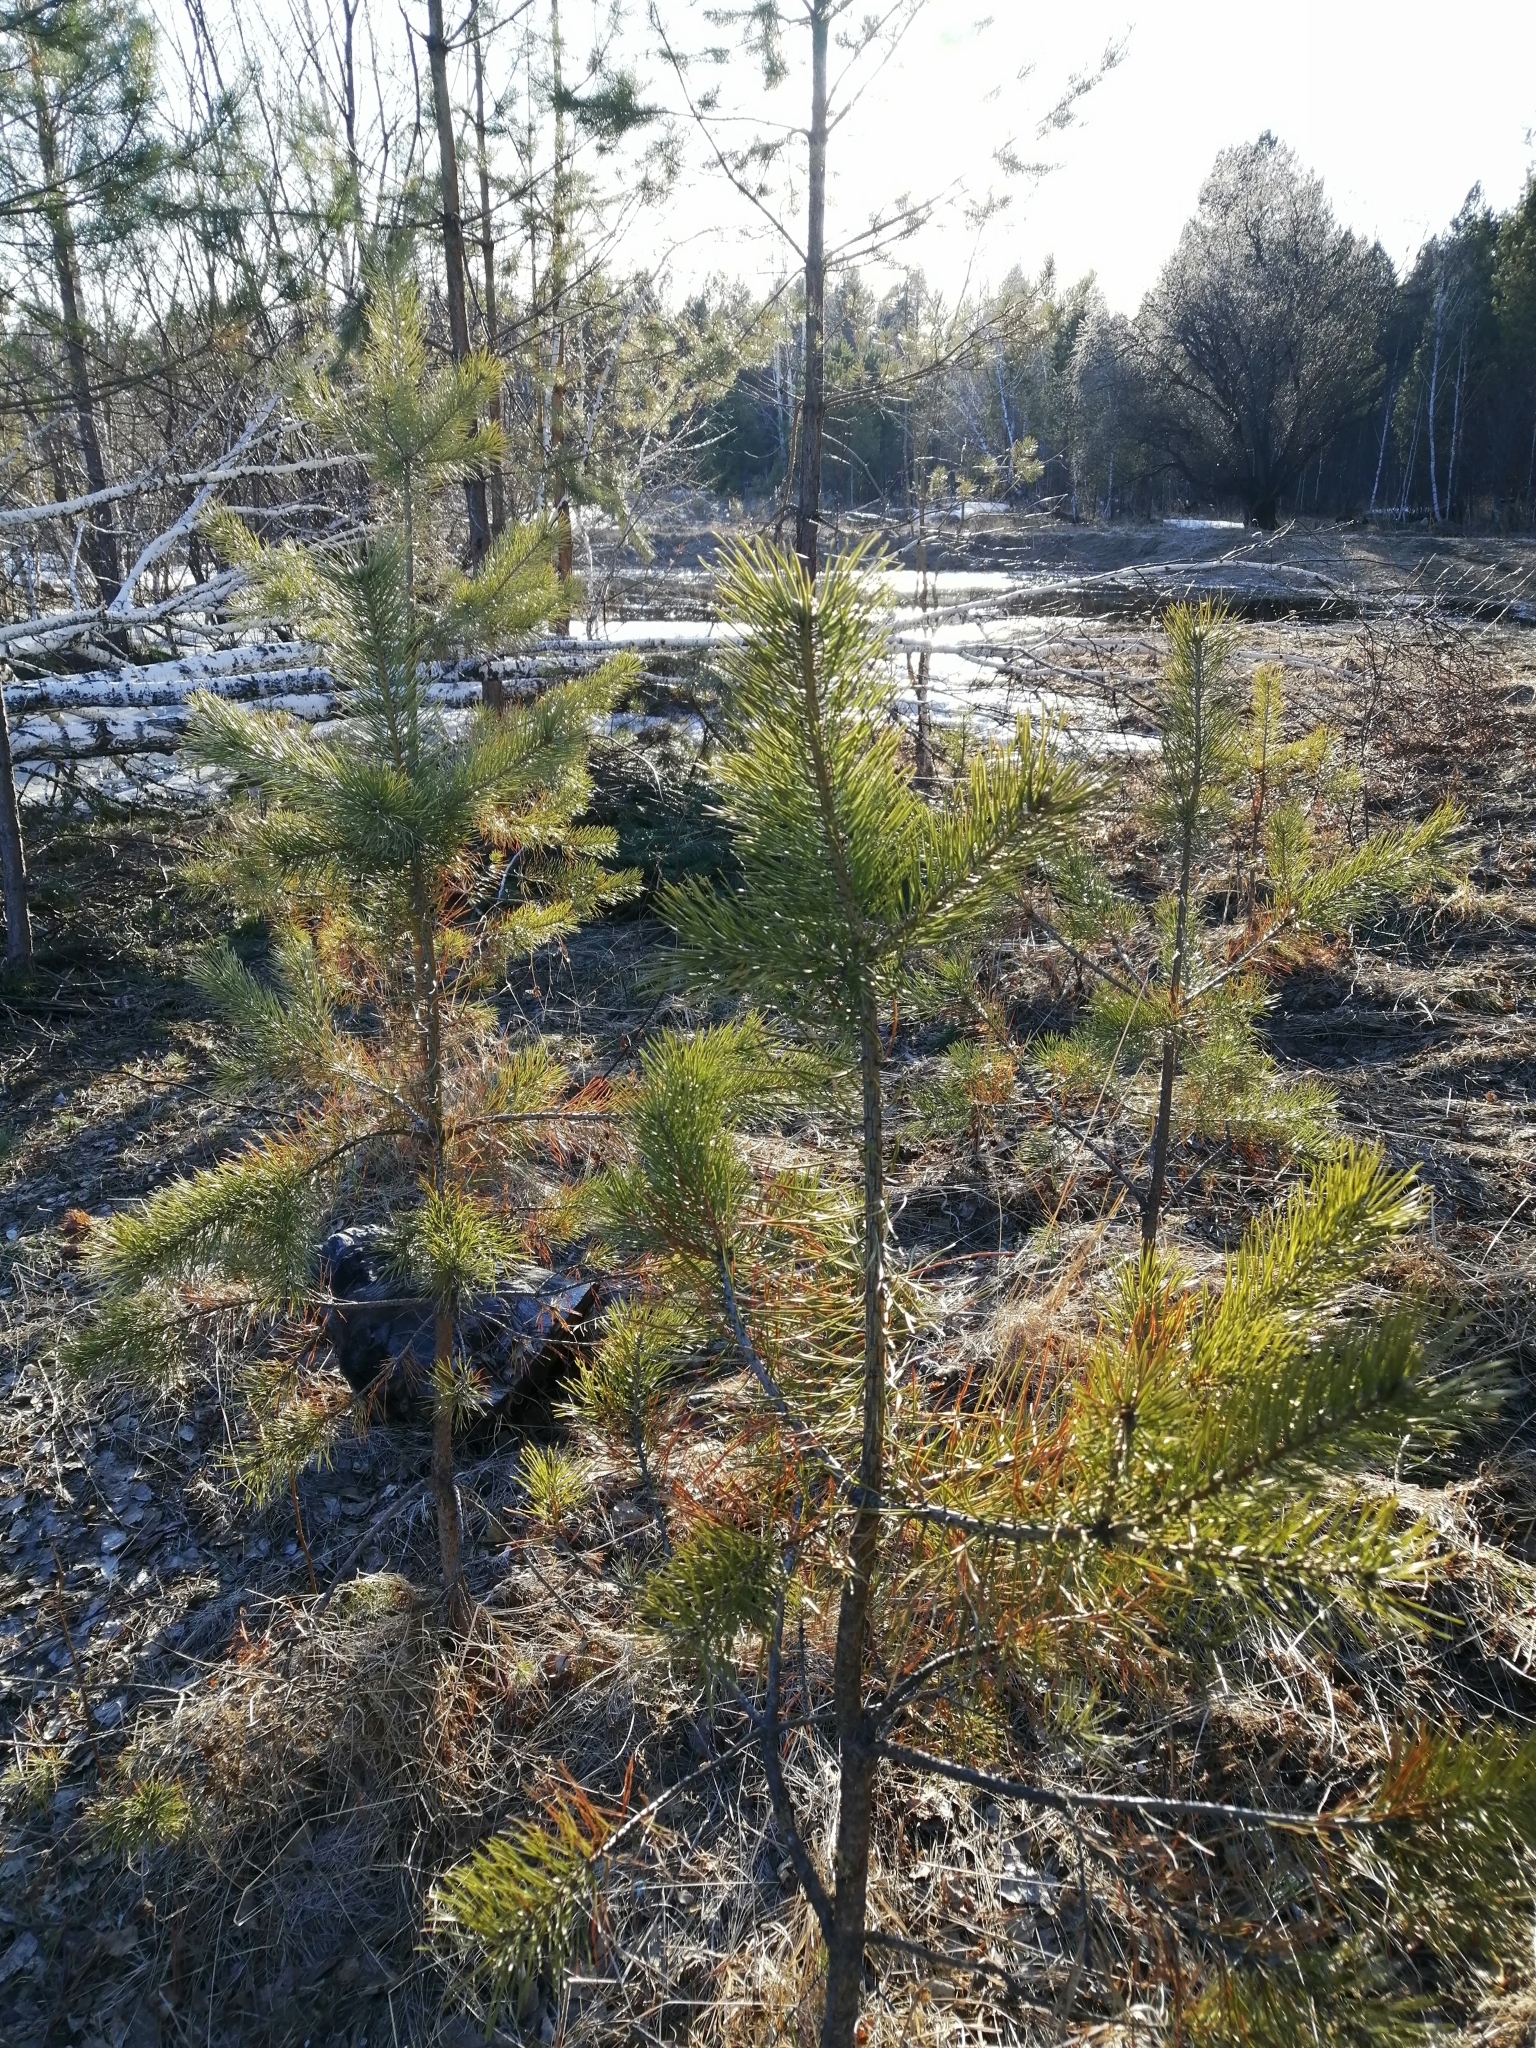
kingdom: Plantae
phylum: Tracheophyta
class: Pinopsida
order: Pinales
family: Pinaceae
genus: Pinus
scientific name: Pinus sylvestris
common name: Scots pine
